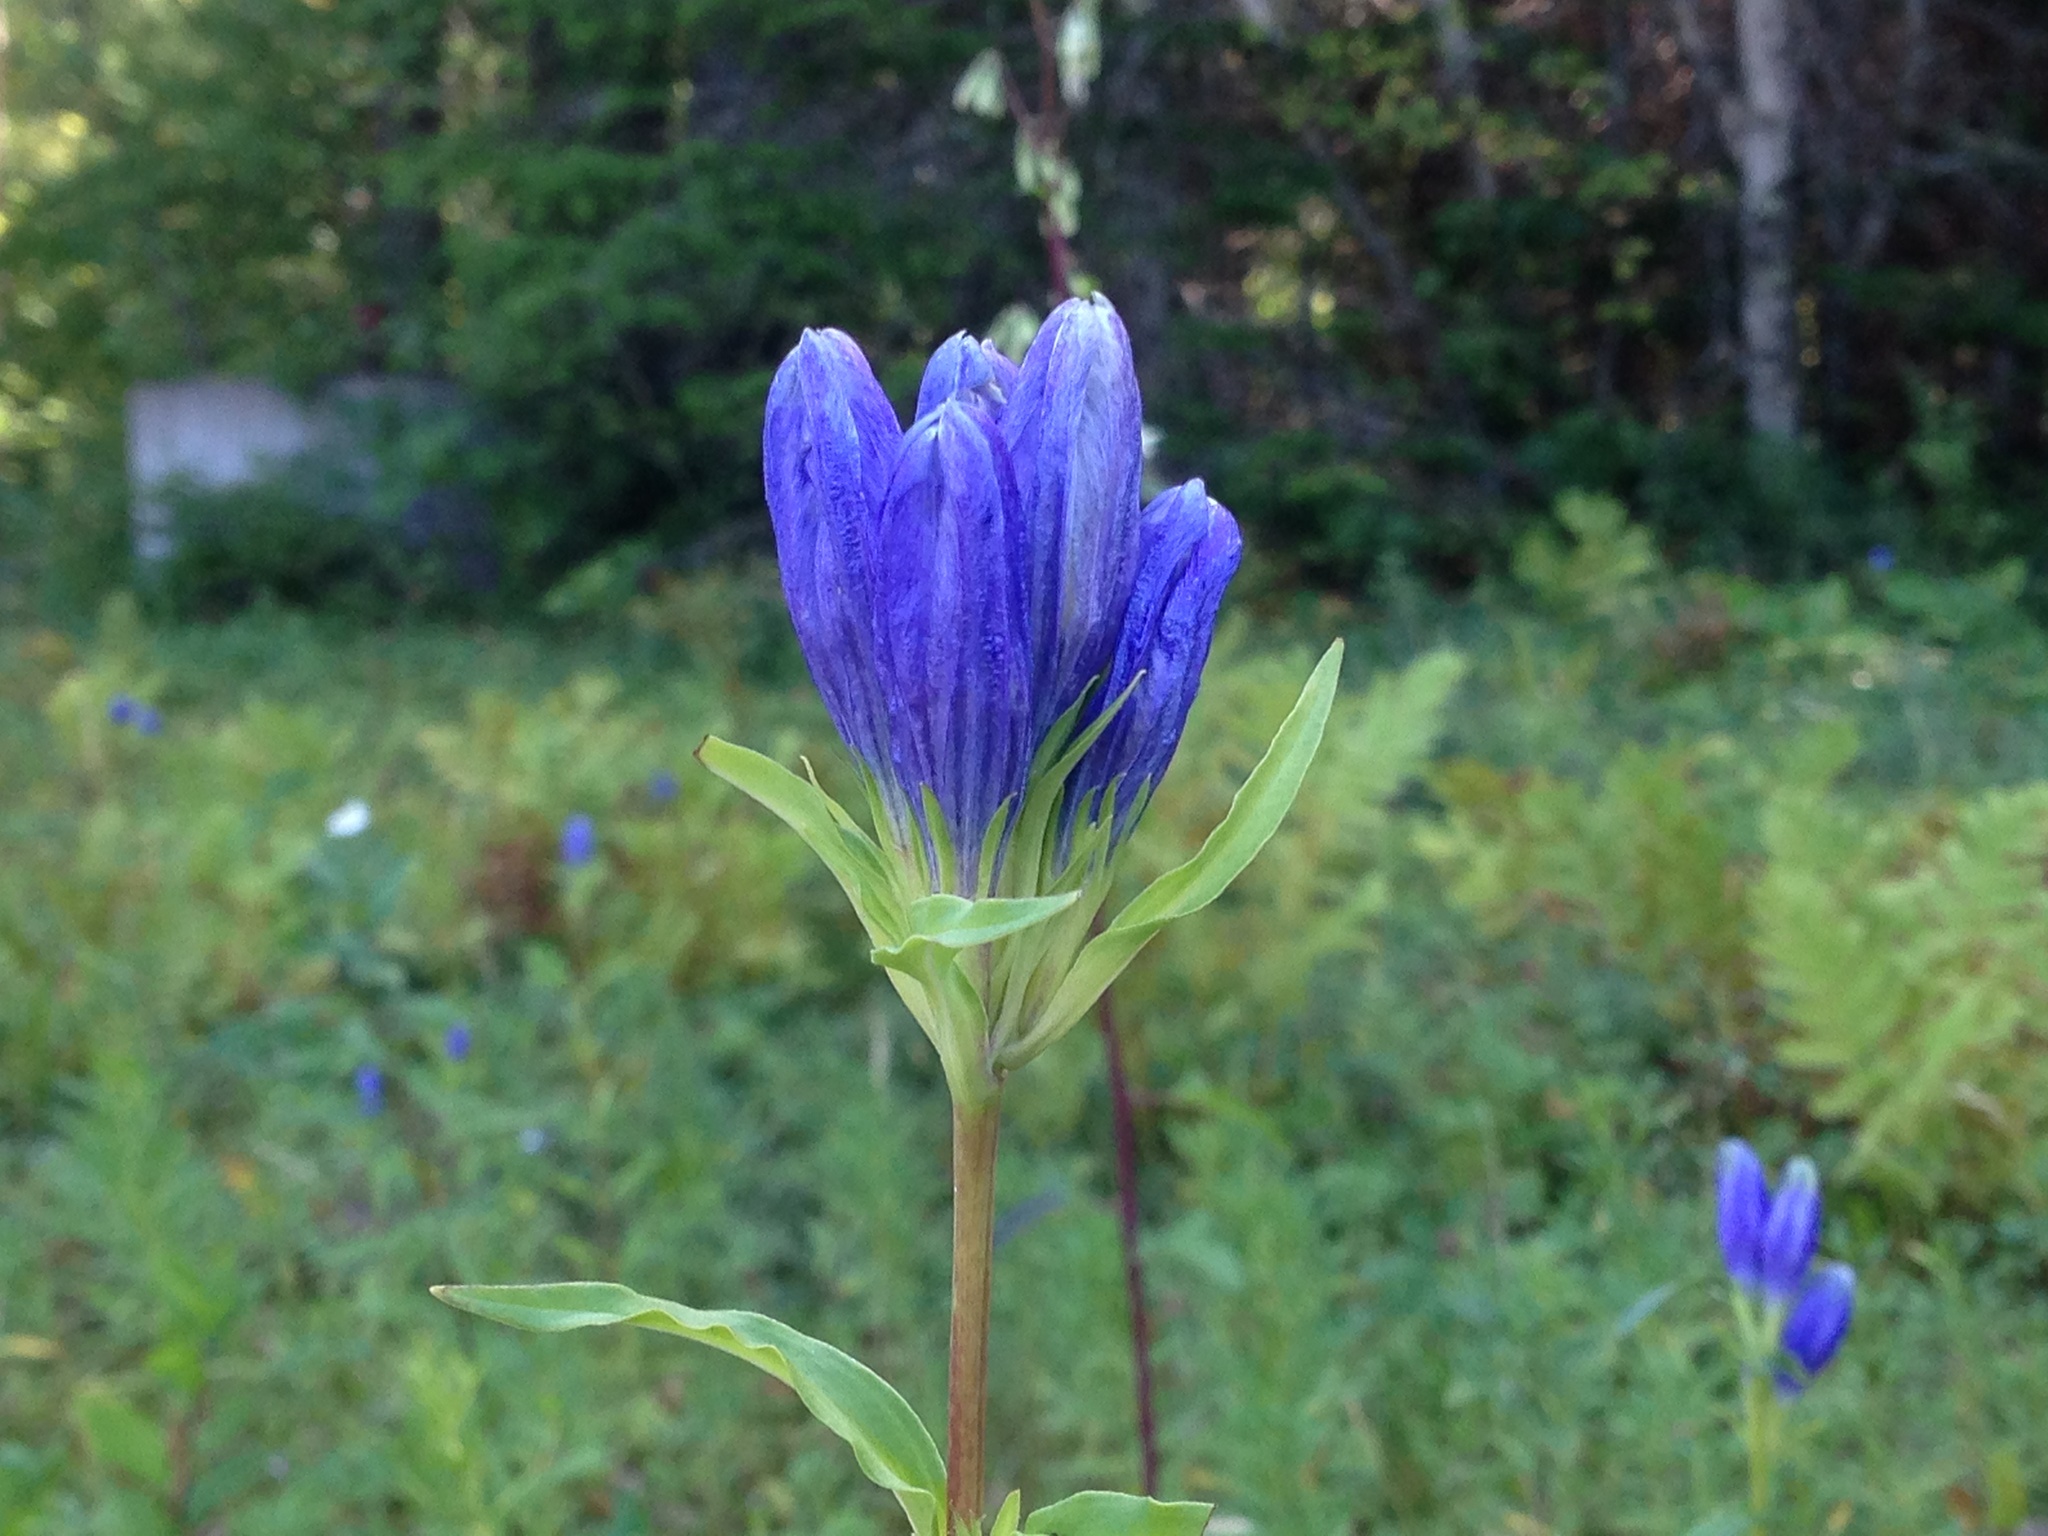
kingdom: Plantae
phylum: Tracheophyta
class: Magnoliopsida
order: Gentianales
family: Gentianaceae
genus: Gentiana
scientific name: Gentiana linearis
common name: Bastard gentian
